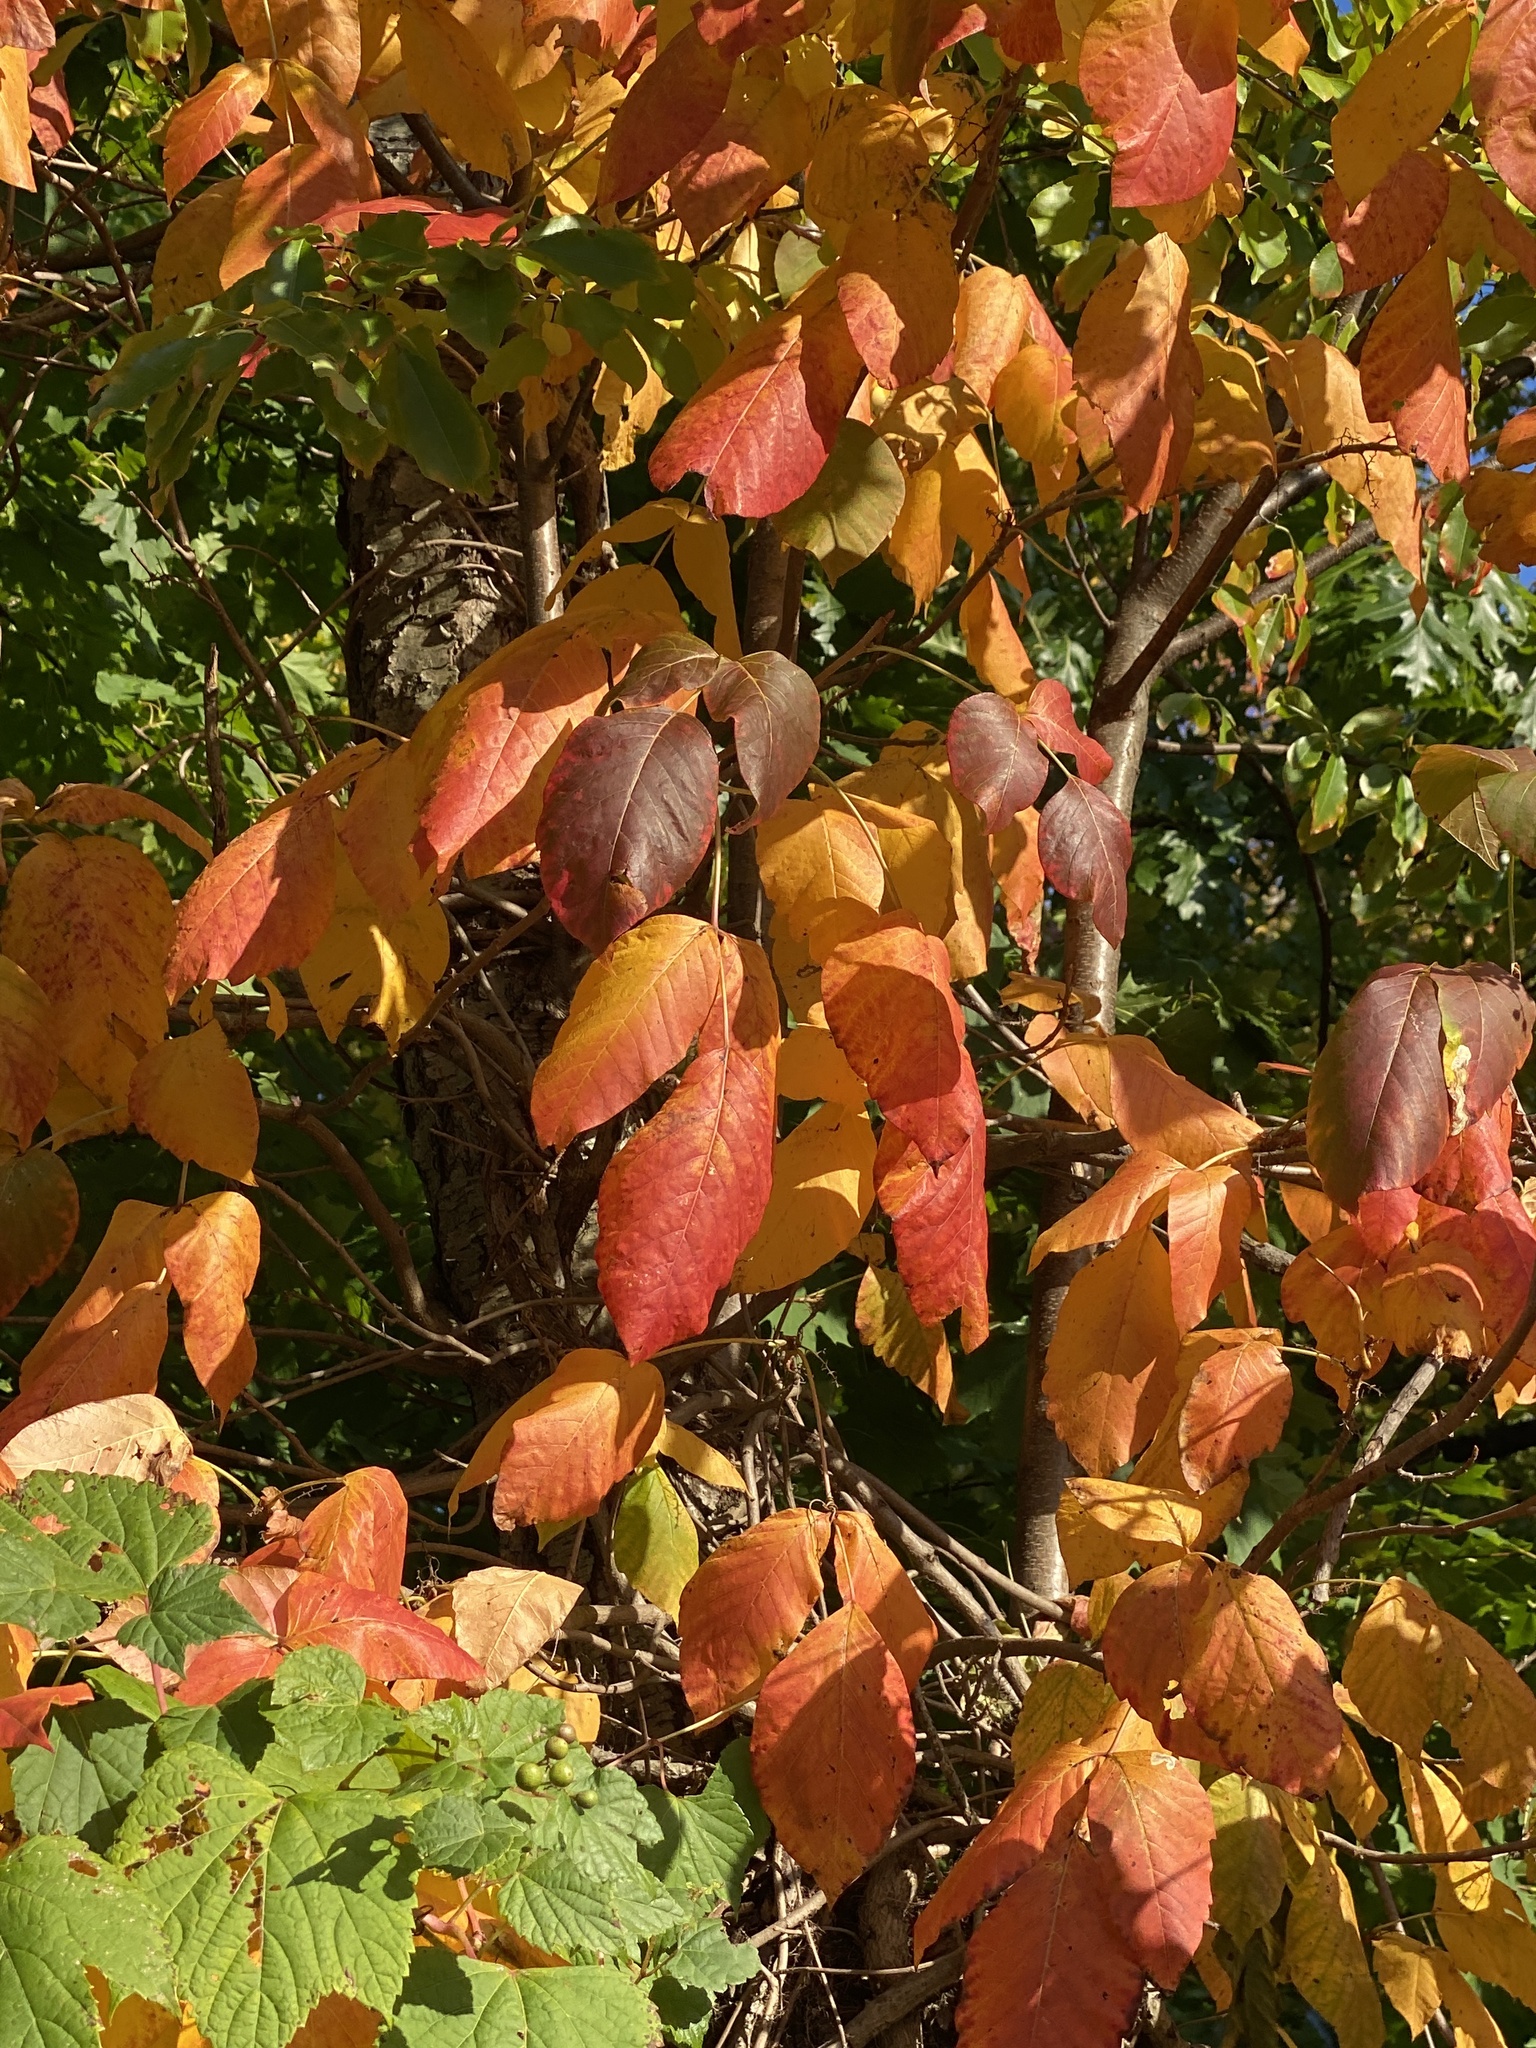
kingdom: Plantae
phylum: Tracheophyta
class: Magnoliopsida
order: Sapindales
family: Anacardiaceae
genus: Toxicodendron
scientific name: Toxicodendron radicans
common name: Poison ivy
